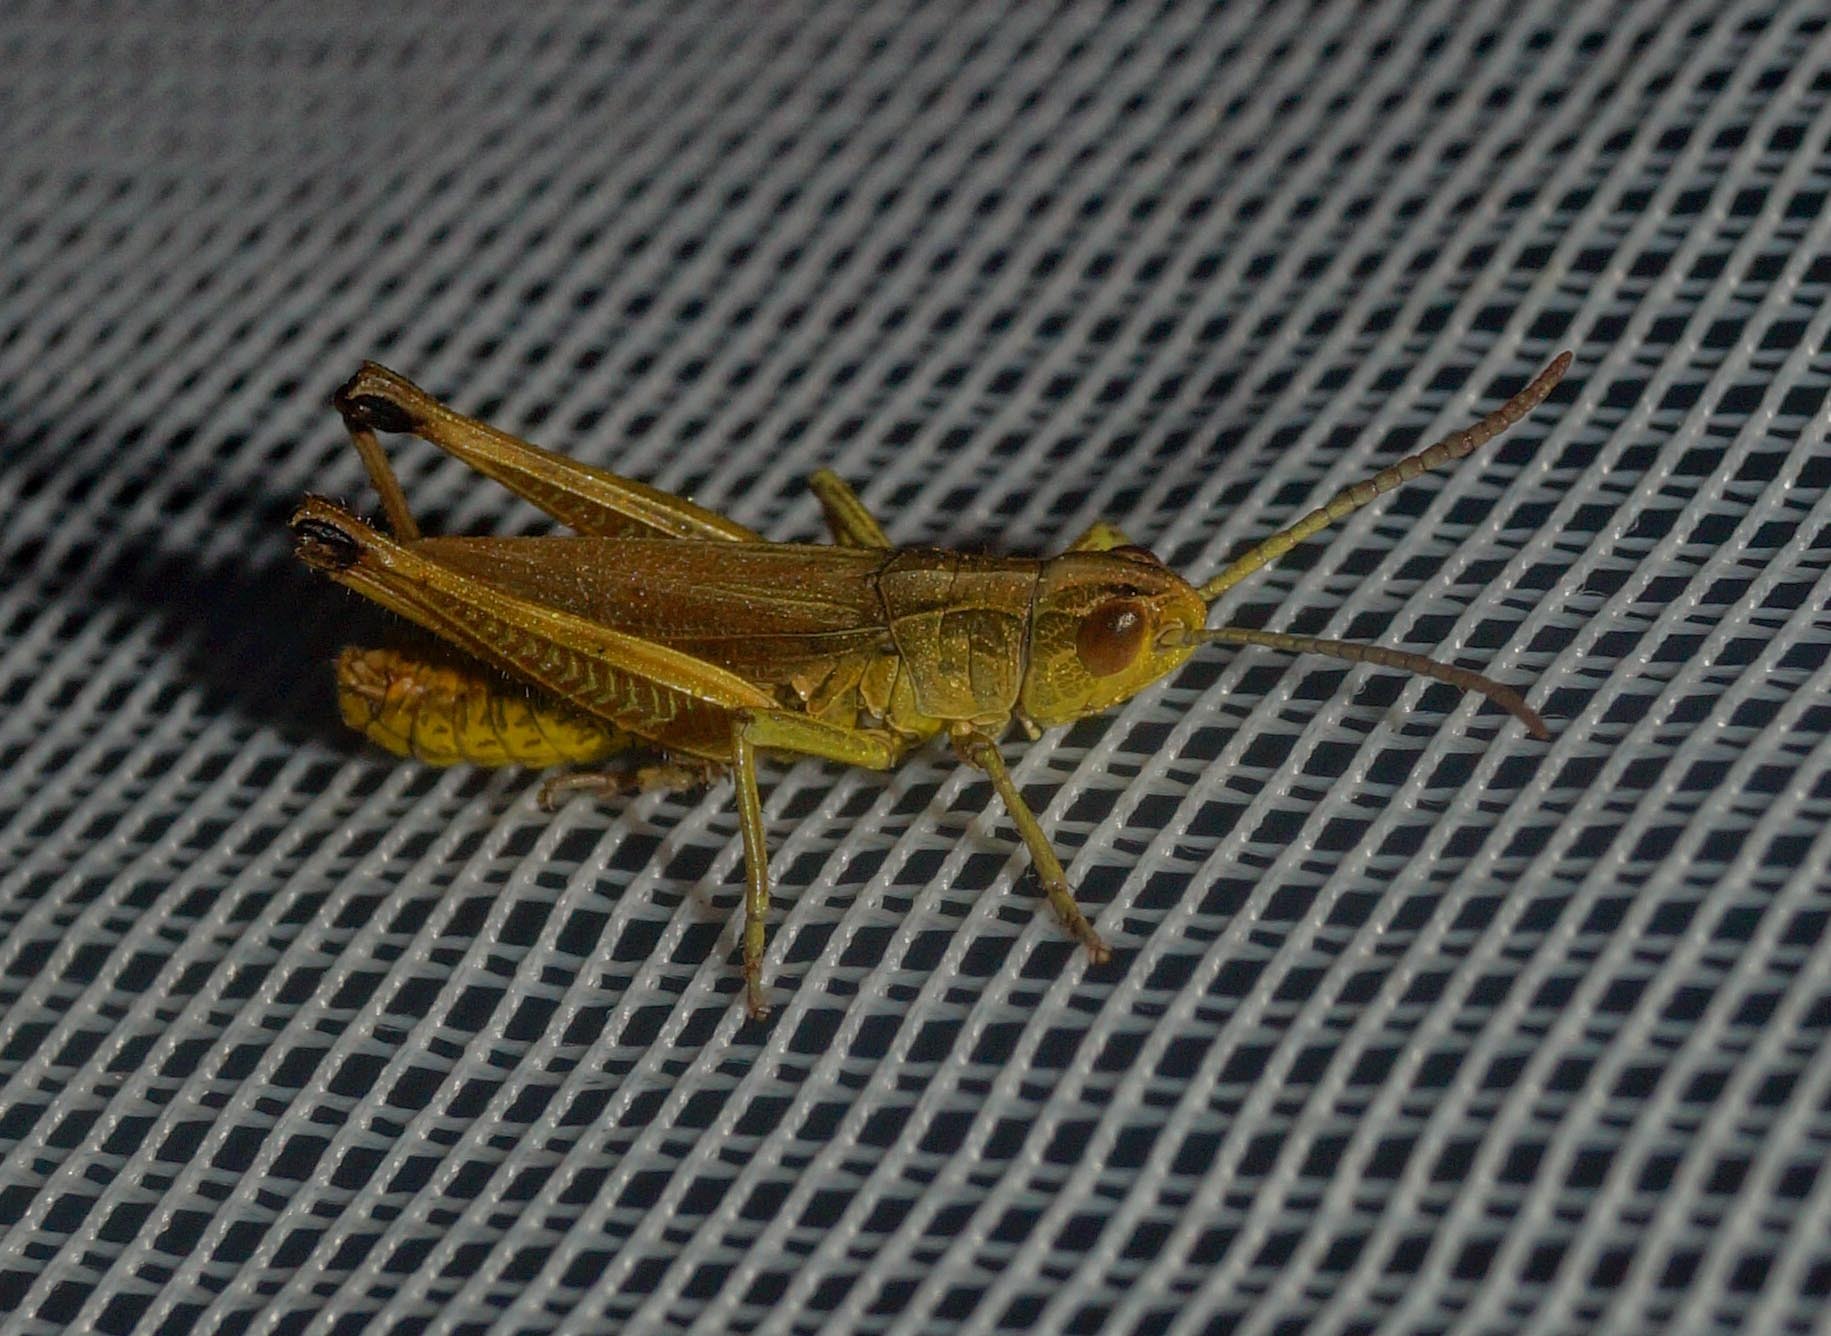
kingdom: Animalia
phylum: Arthropoda
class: Insecta
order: Orthoptera
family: Acrididae
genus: Pseudochorthippus
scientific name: Pseudochorthippus parallelus
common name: Meadow grasshopper
